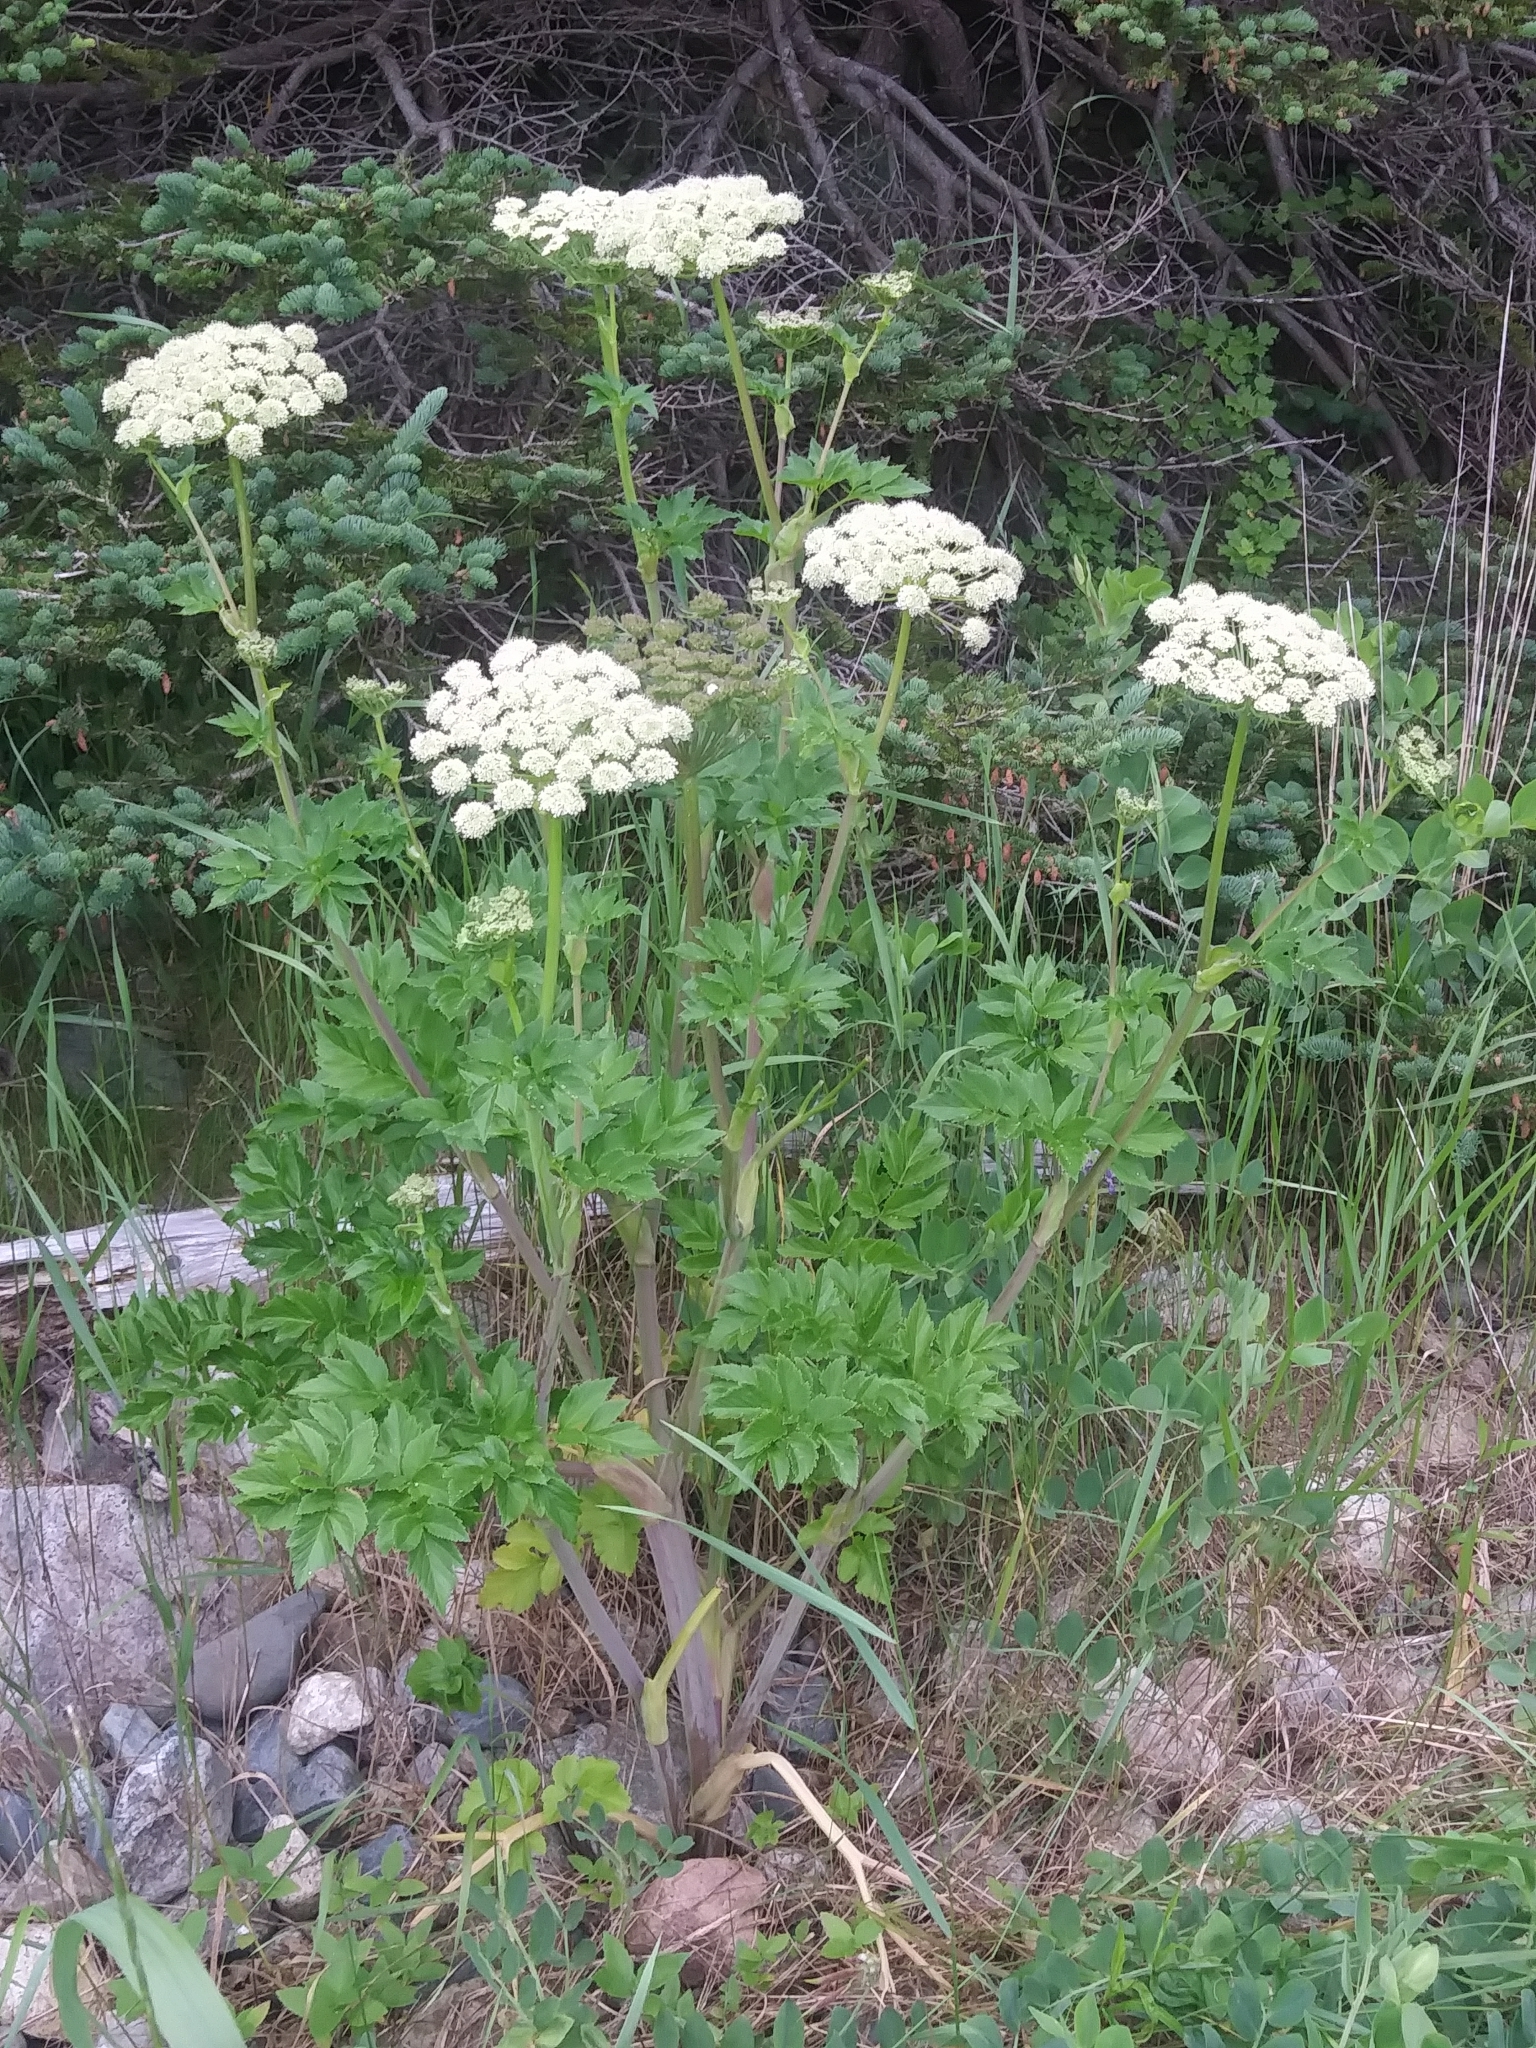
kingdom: Plantae
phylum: Tracheophyta
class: Magnoliopsida
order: Apiales
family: Apiaceae
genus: Angelica
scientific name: Angelica lucida
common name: Seabeach angelica
